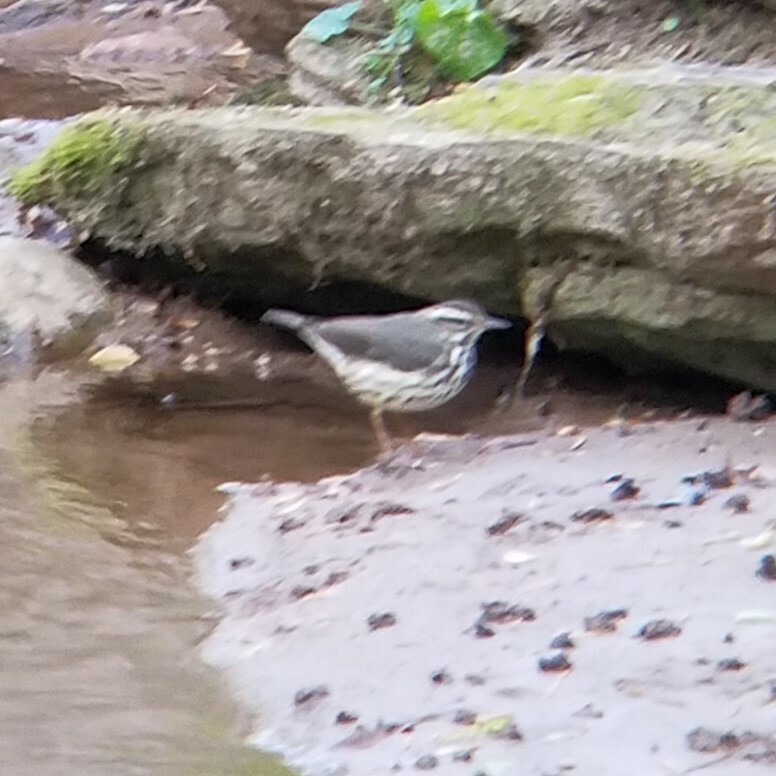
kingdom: Animalia
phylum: Chordata
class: Aves
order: Passeriformes
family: Parulidae
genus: Parkesia
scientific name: Parkesia motacilla
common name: Louisiana waterthrush
